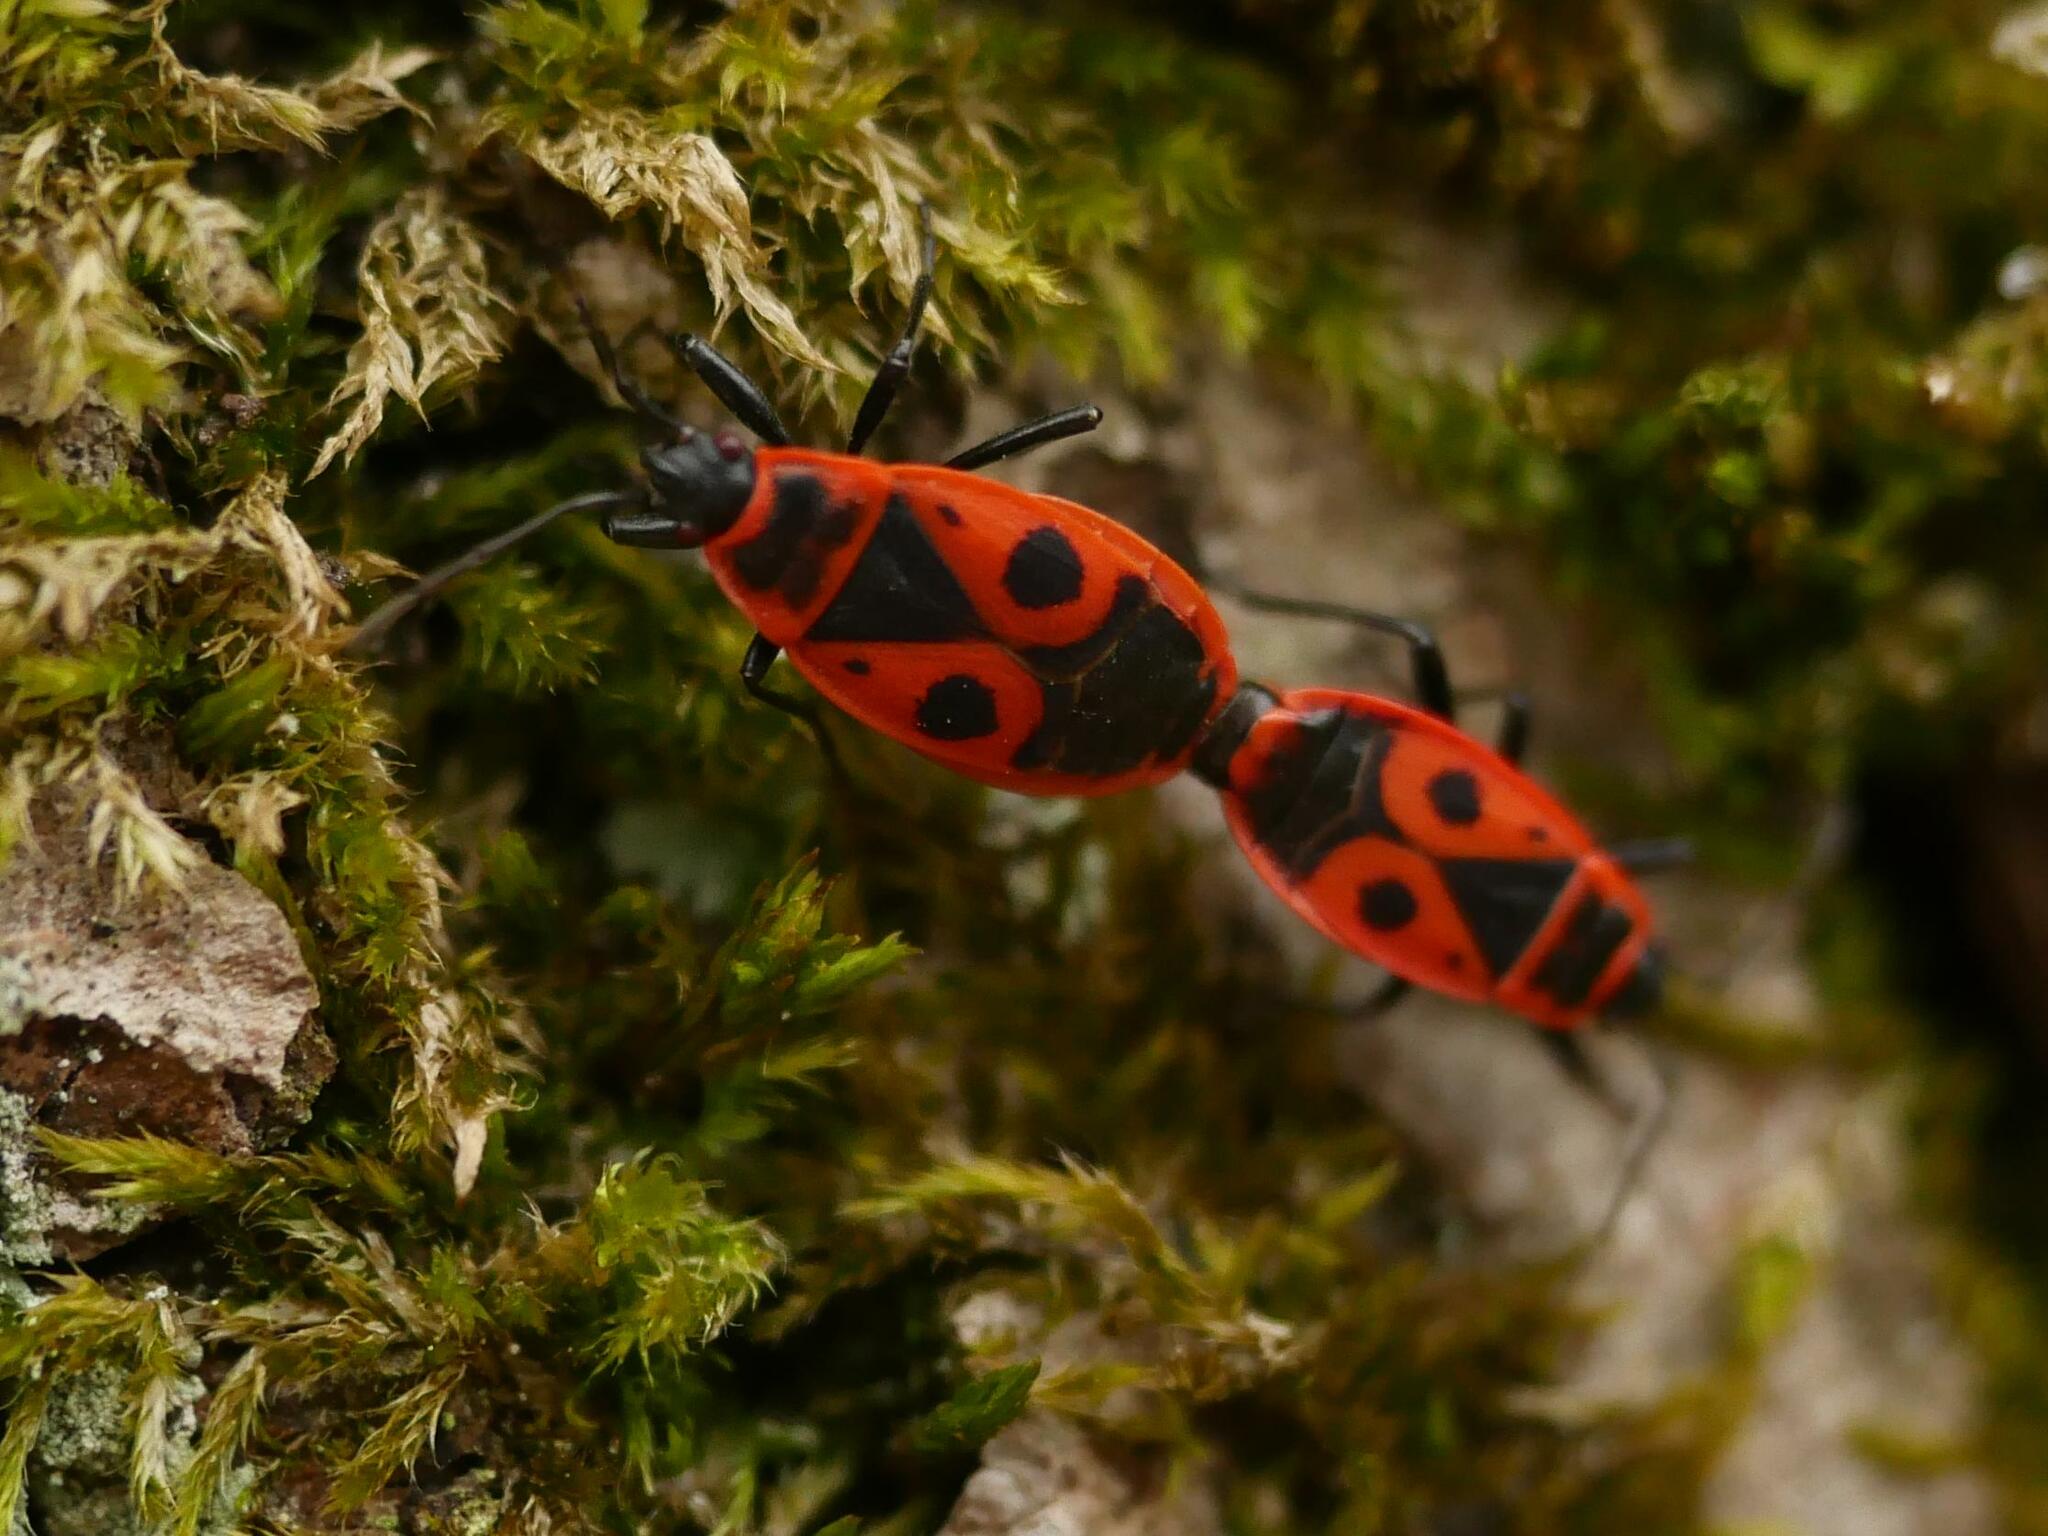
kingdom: Animalia
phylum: Arthropoda
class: Insecta
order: Hemiptera
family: Pyrrhocoridae
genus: Pyrrhocoris
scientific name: Pyrrhocoris apterus
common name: Firebug
